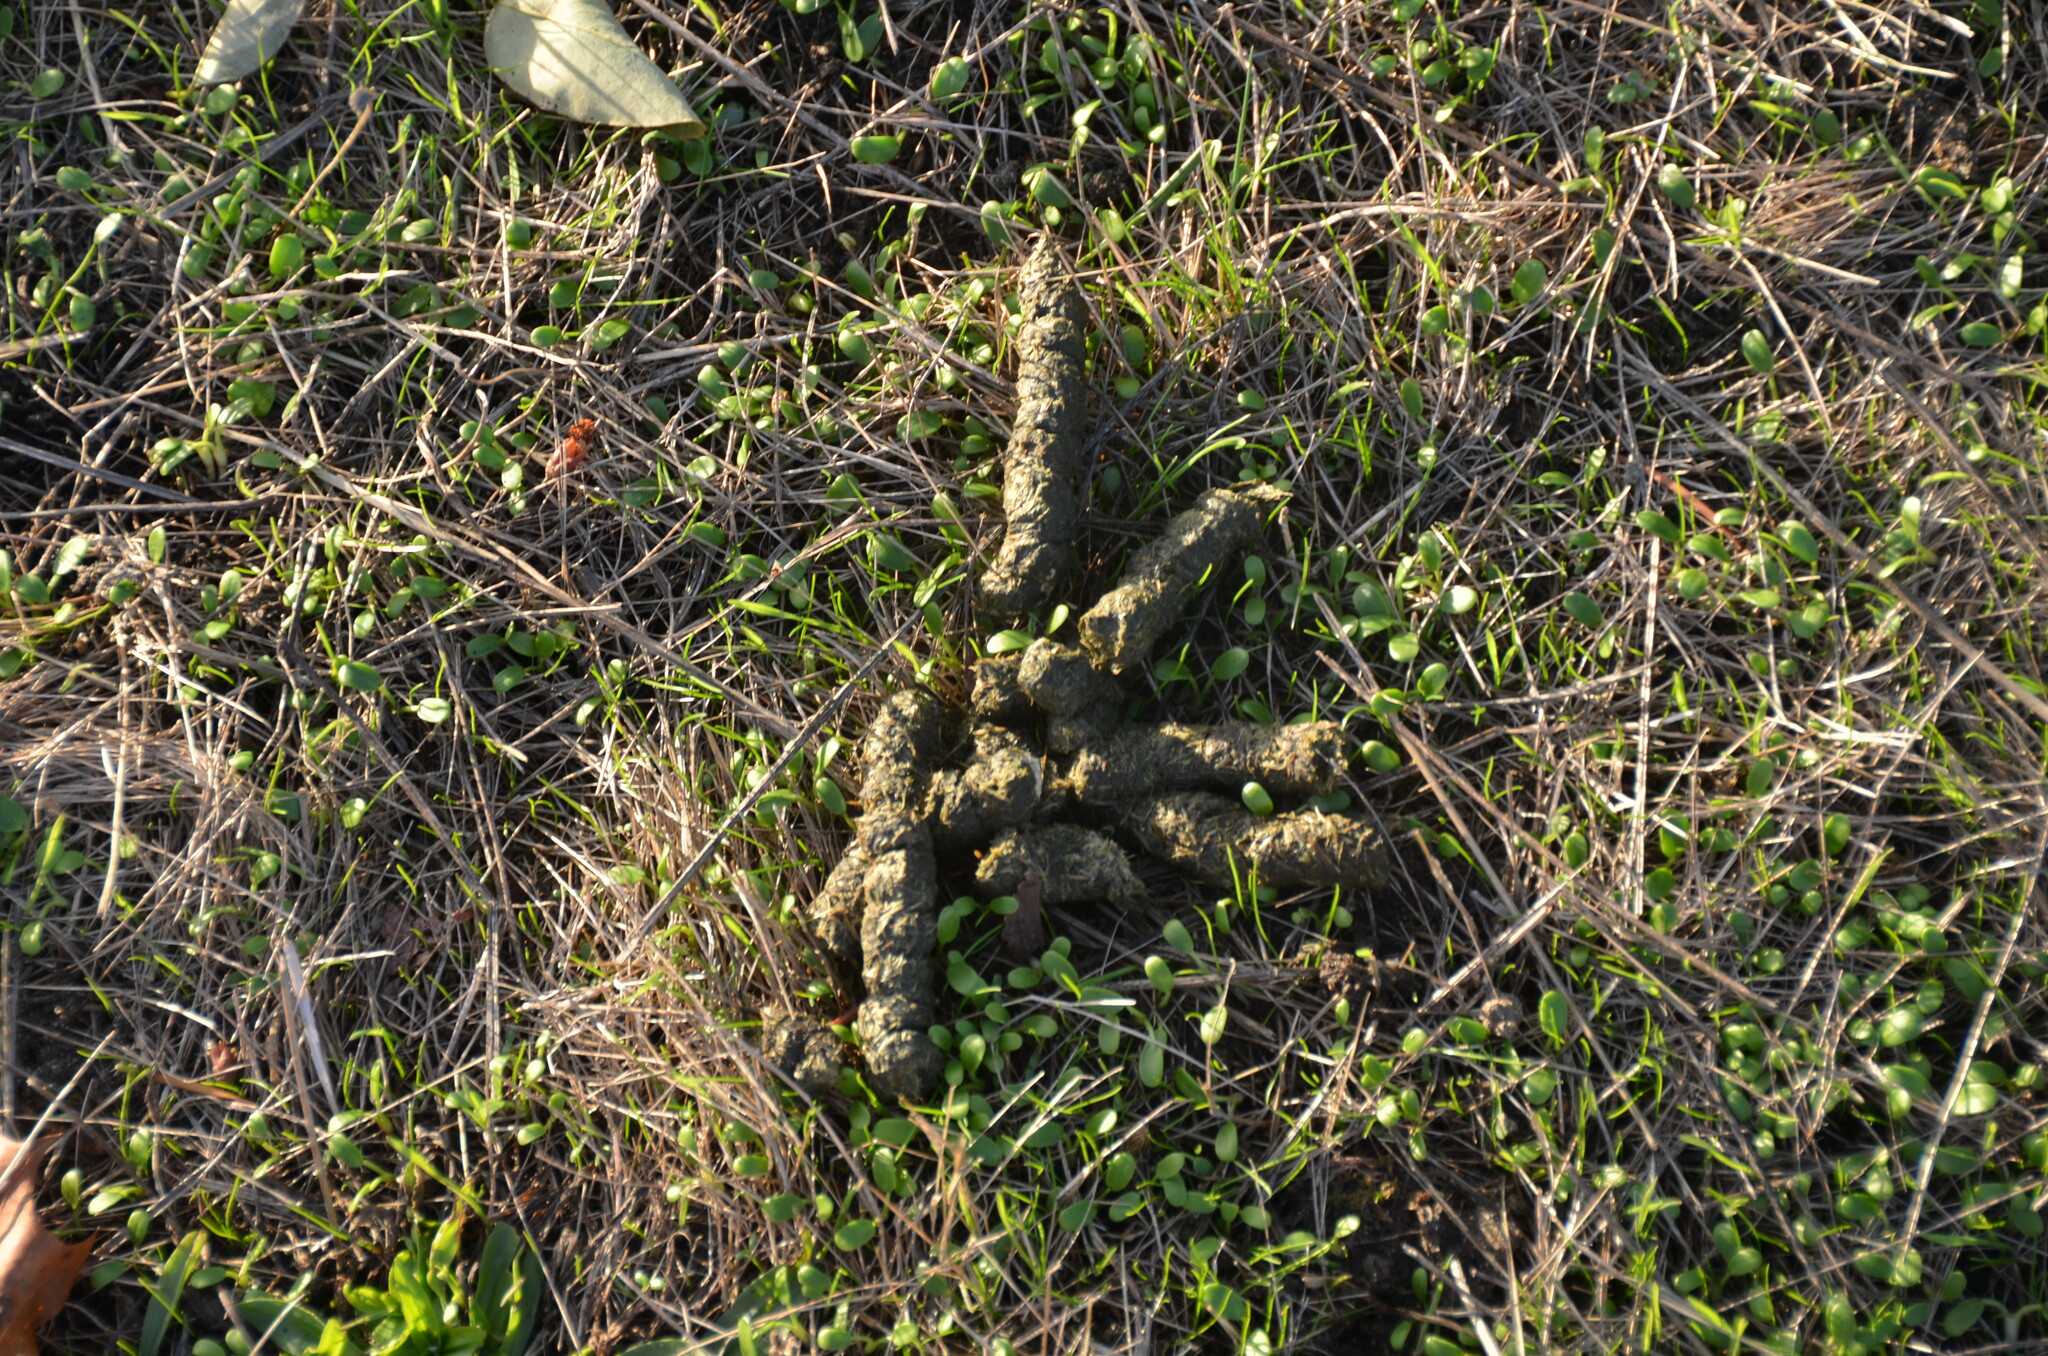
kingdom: Animalia
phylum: Chordata
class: Aves
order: Anseriformes
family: Anatidae
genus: Branta
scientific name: Branta canadensis
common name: Canada goose
